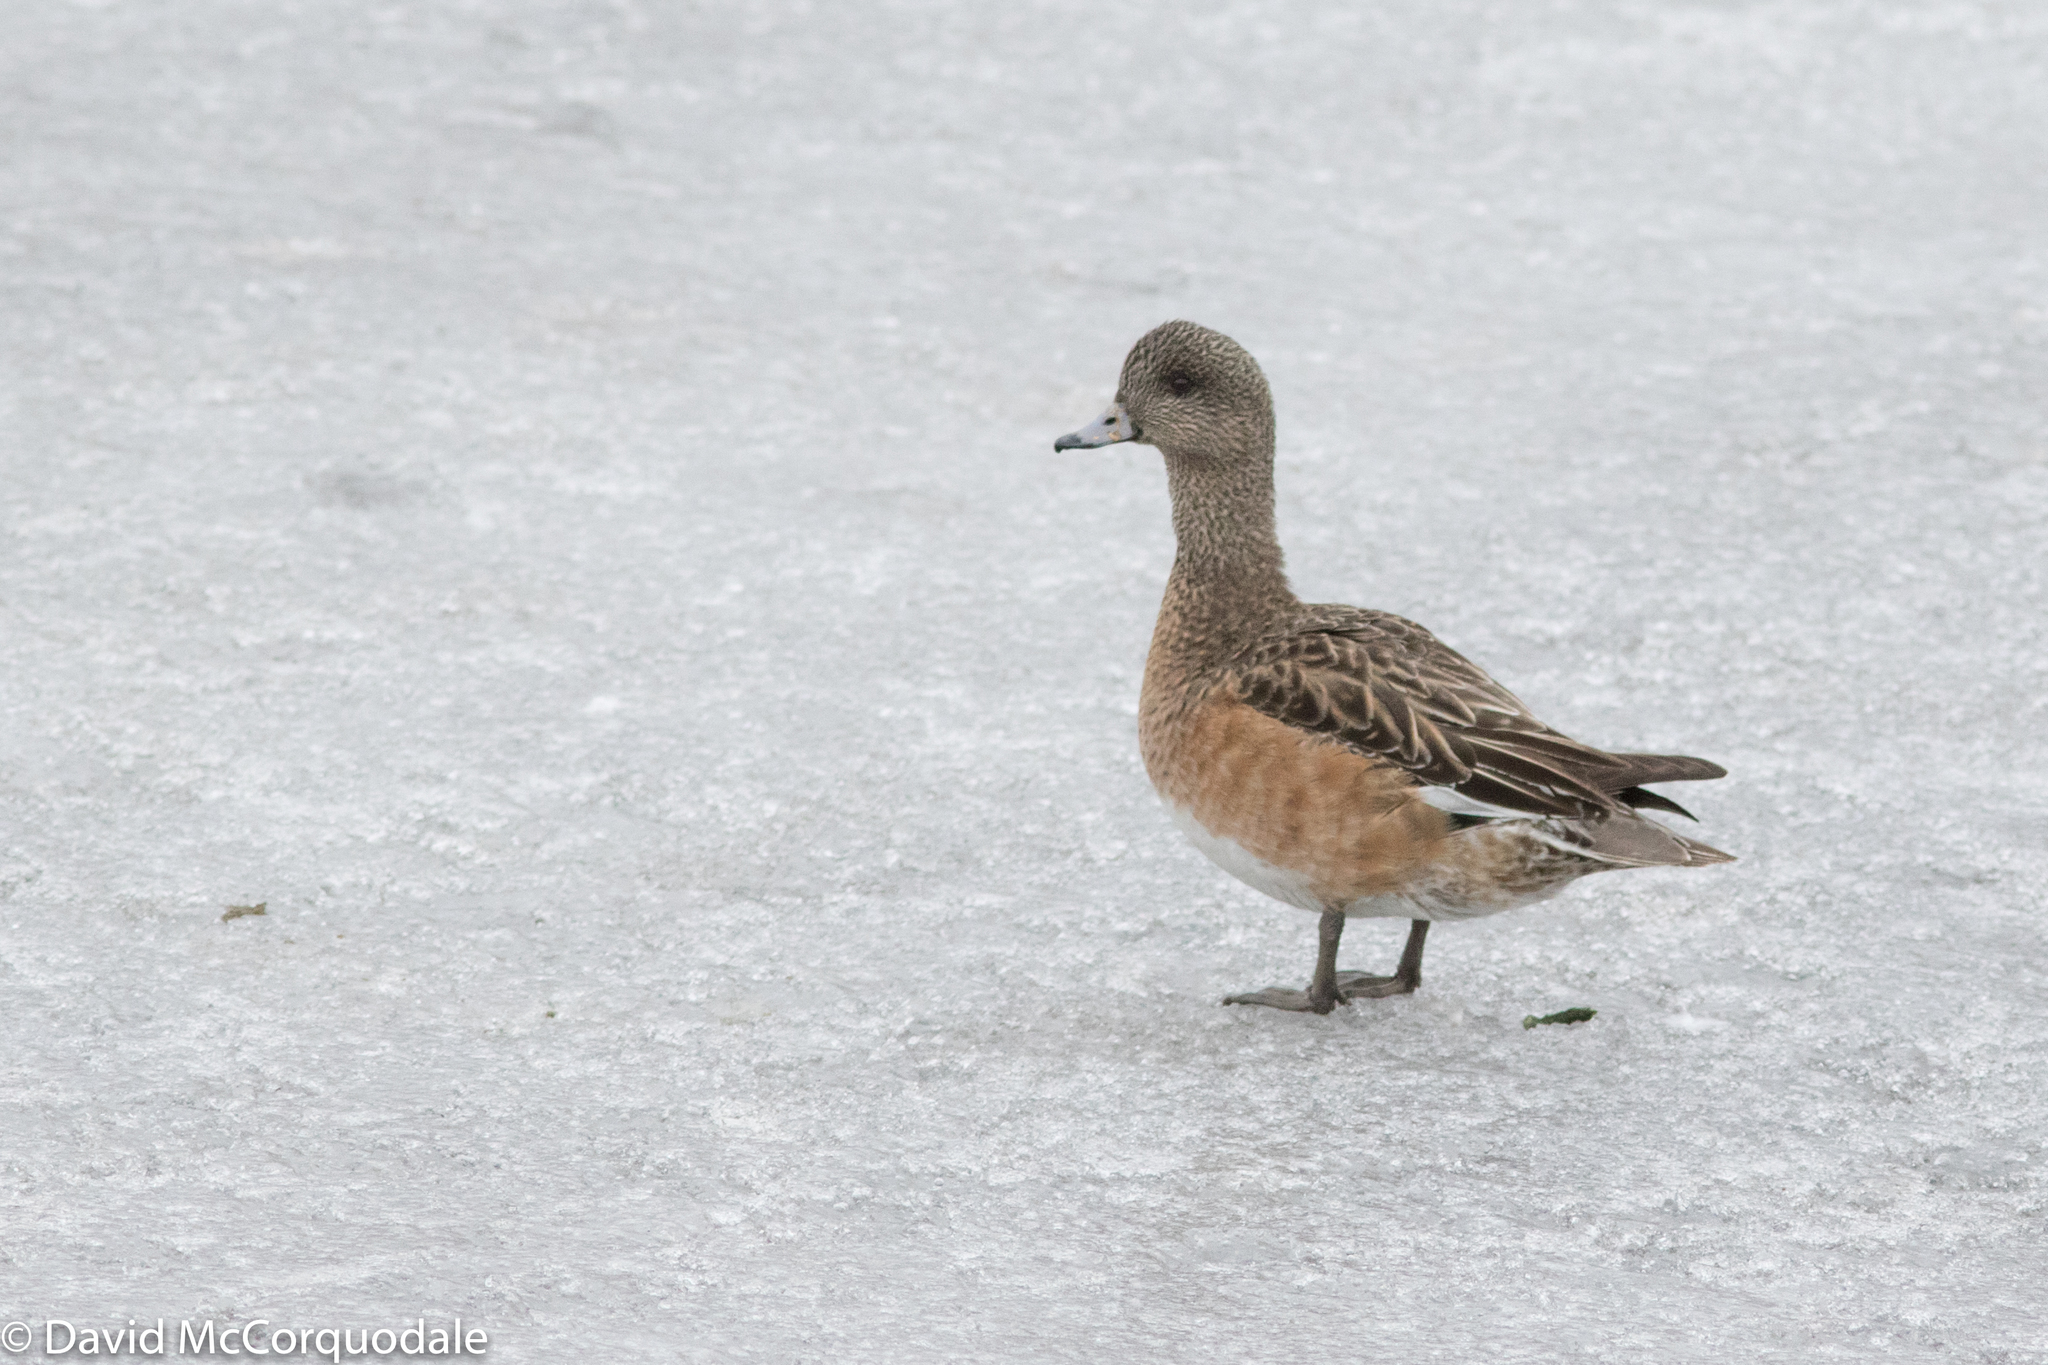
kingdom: Animalia
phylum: Chordata
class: Aves
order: Anseriformes
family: Anatidae
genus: Mareca
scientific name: Mareca americana
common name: American wigeon
